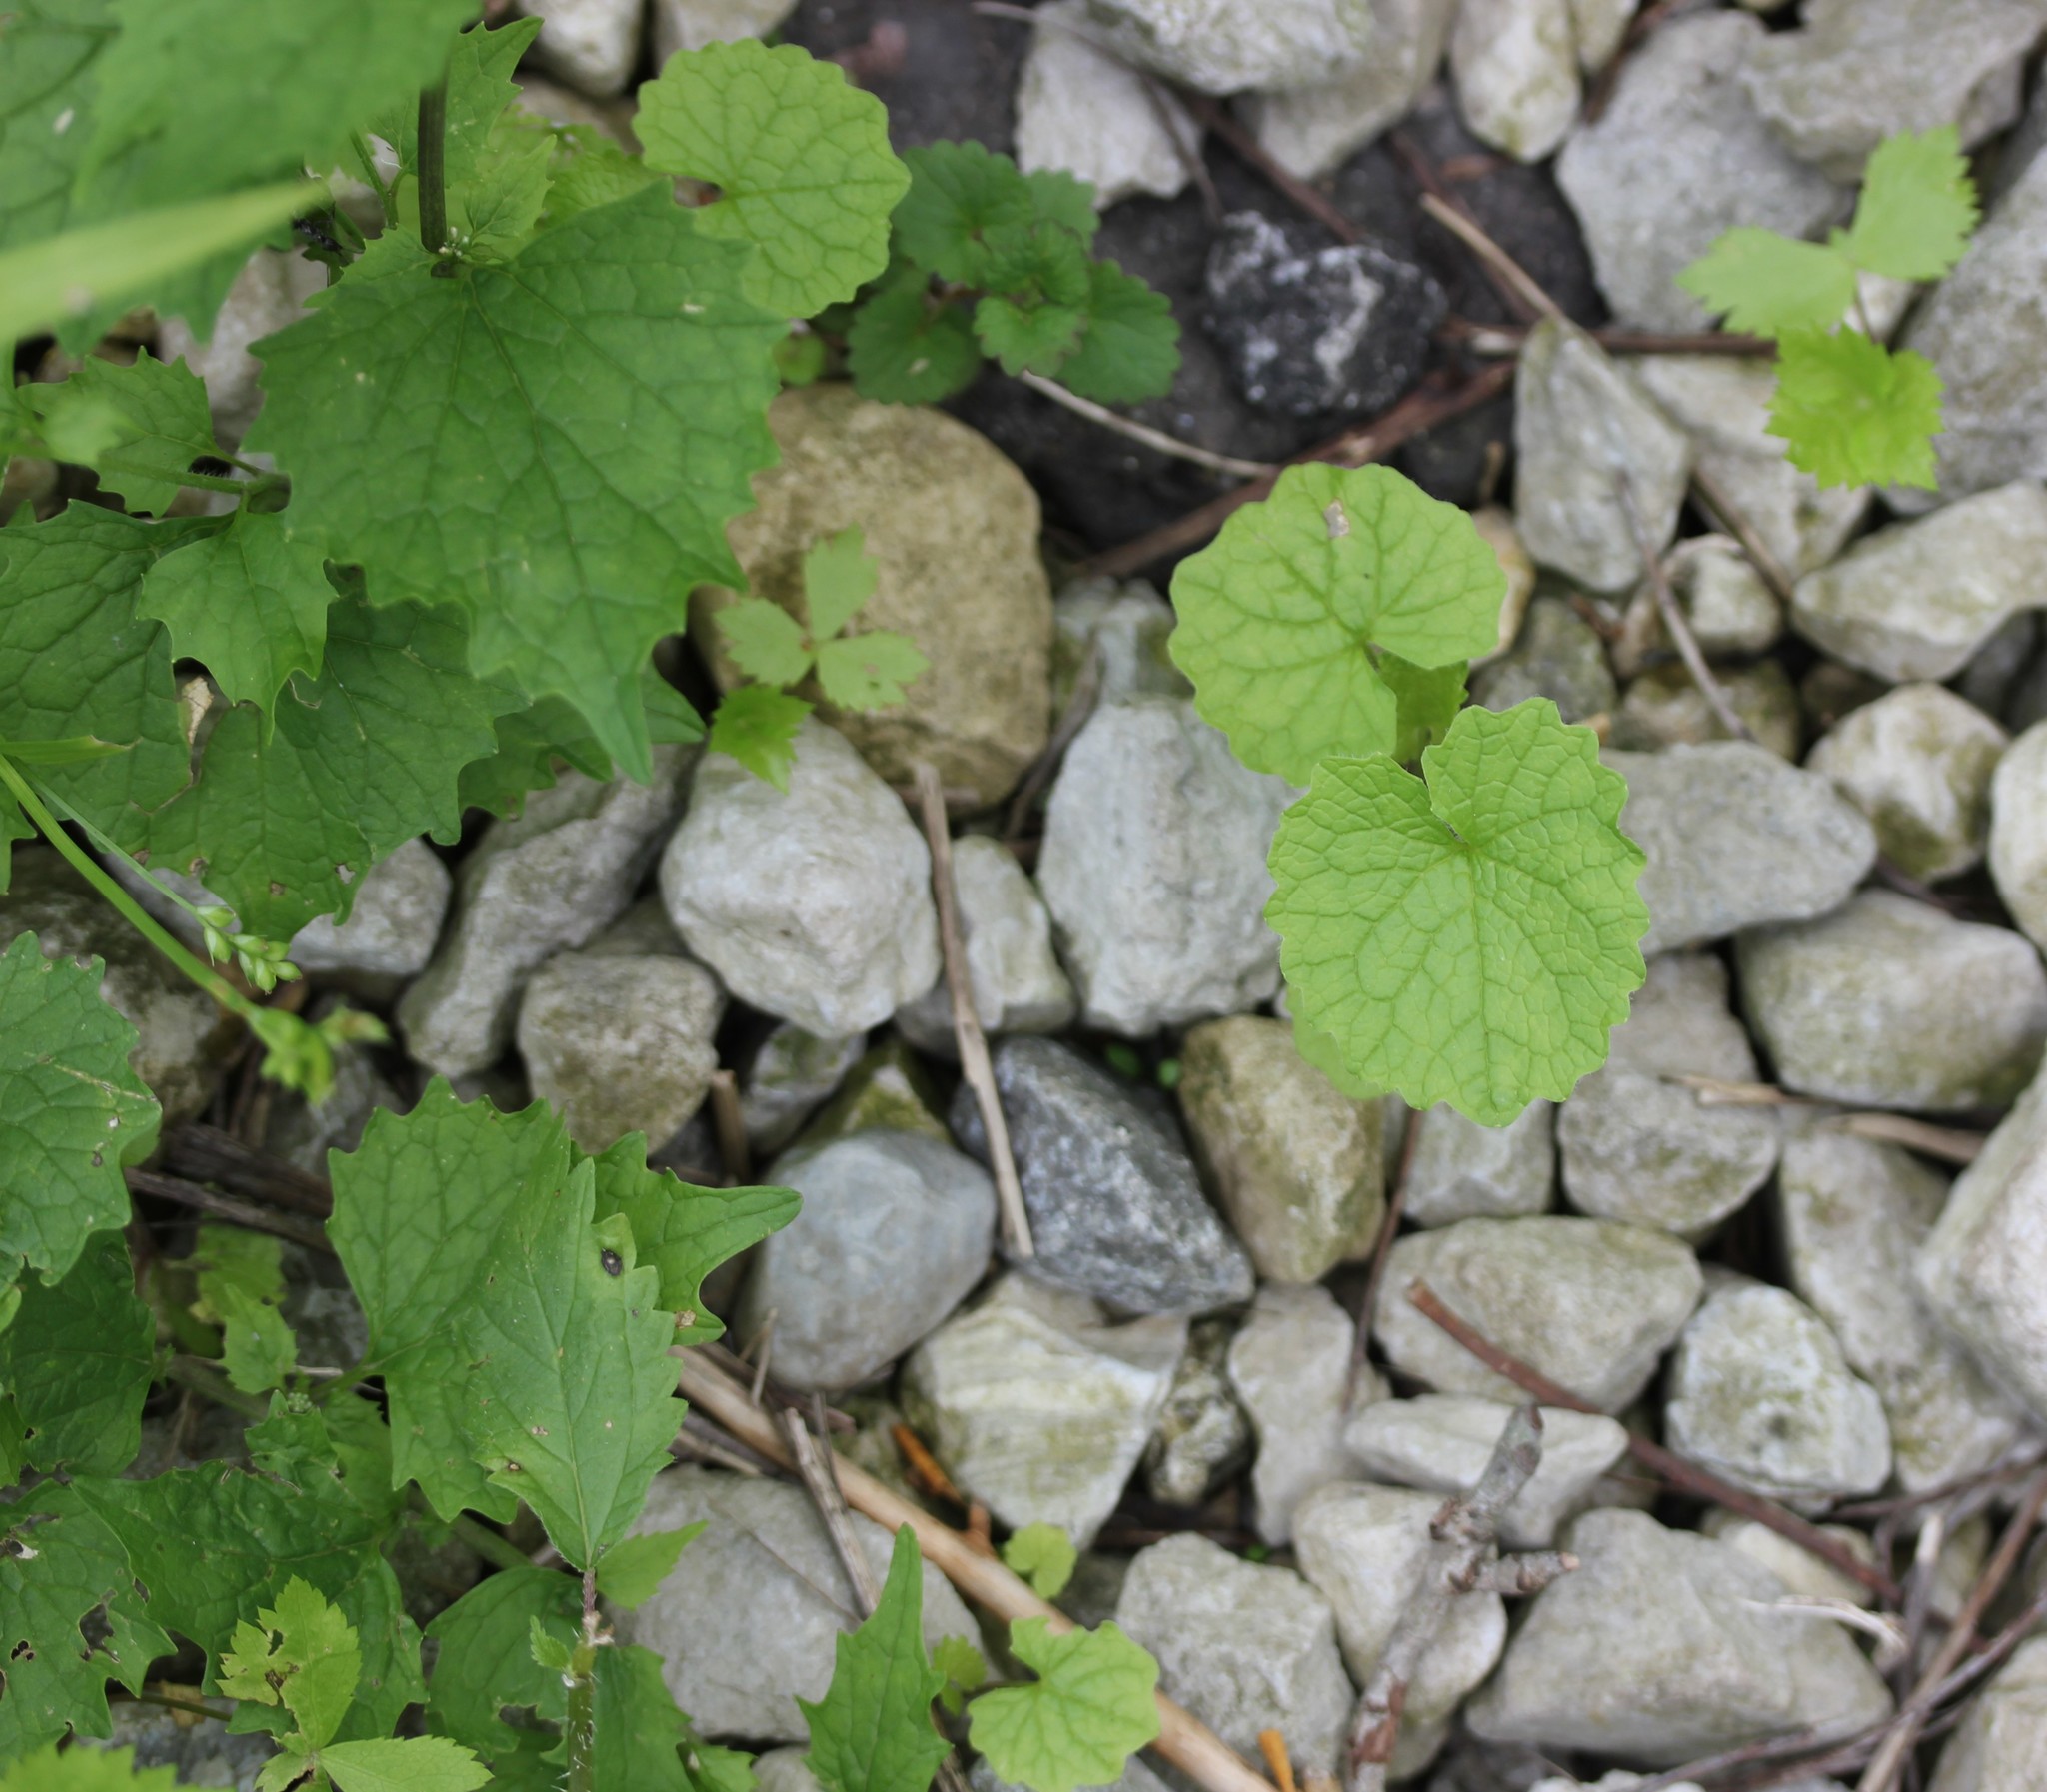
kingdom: Plantae
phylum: Tracheophyta
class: Magnoliopsida
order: Brassicales
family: Brassicaceae
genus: Alliaria
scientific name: Alliaria petiolata
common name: Garlic mustard
